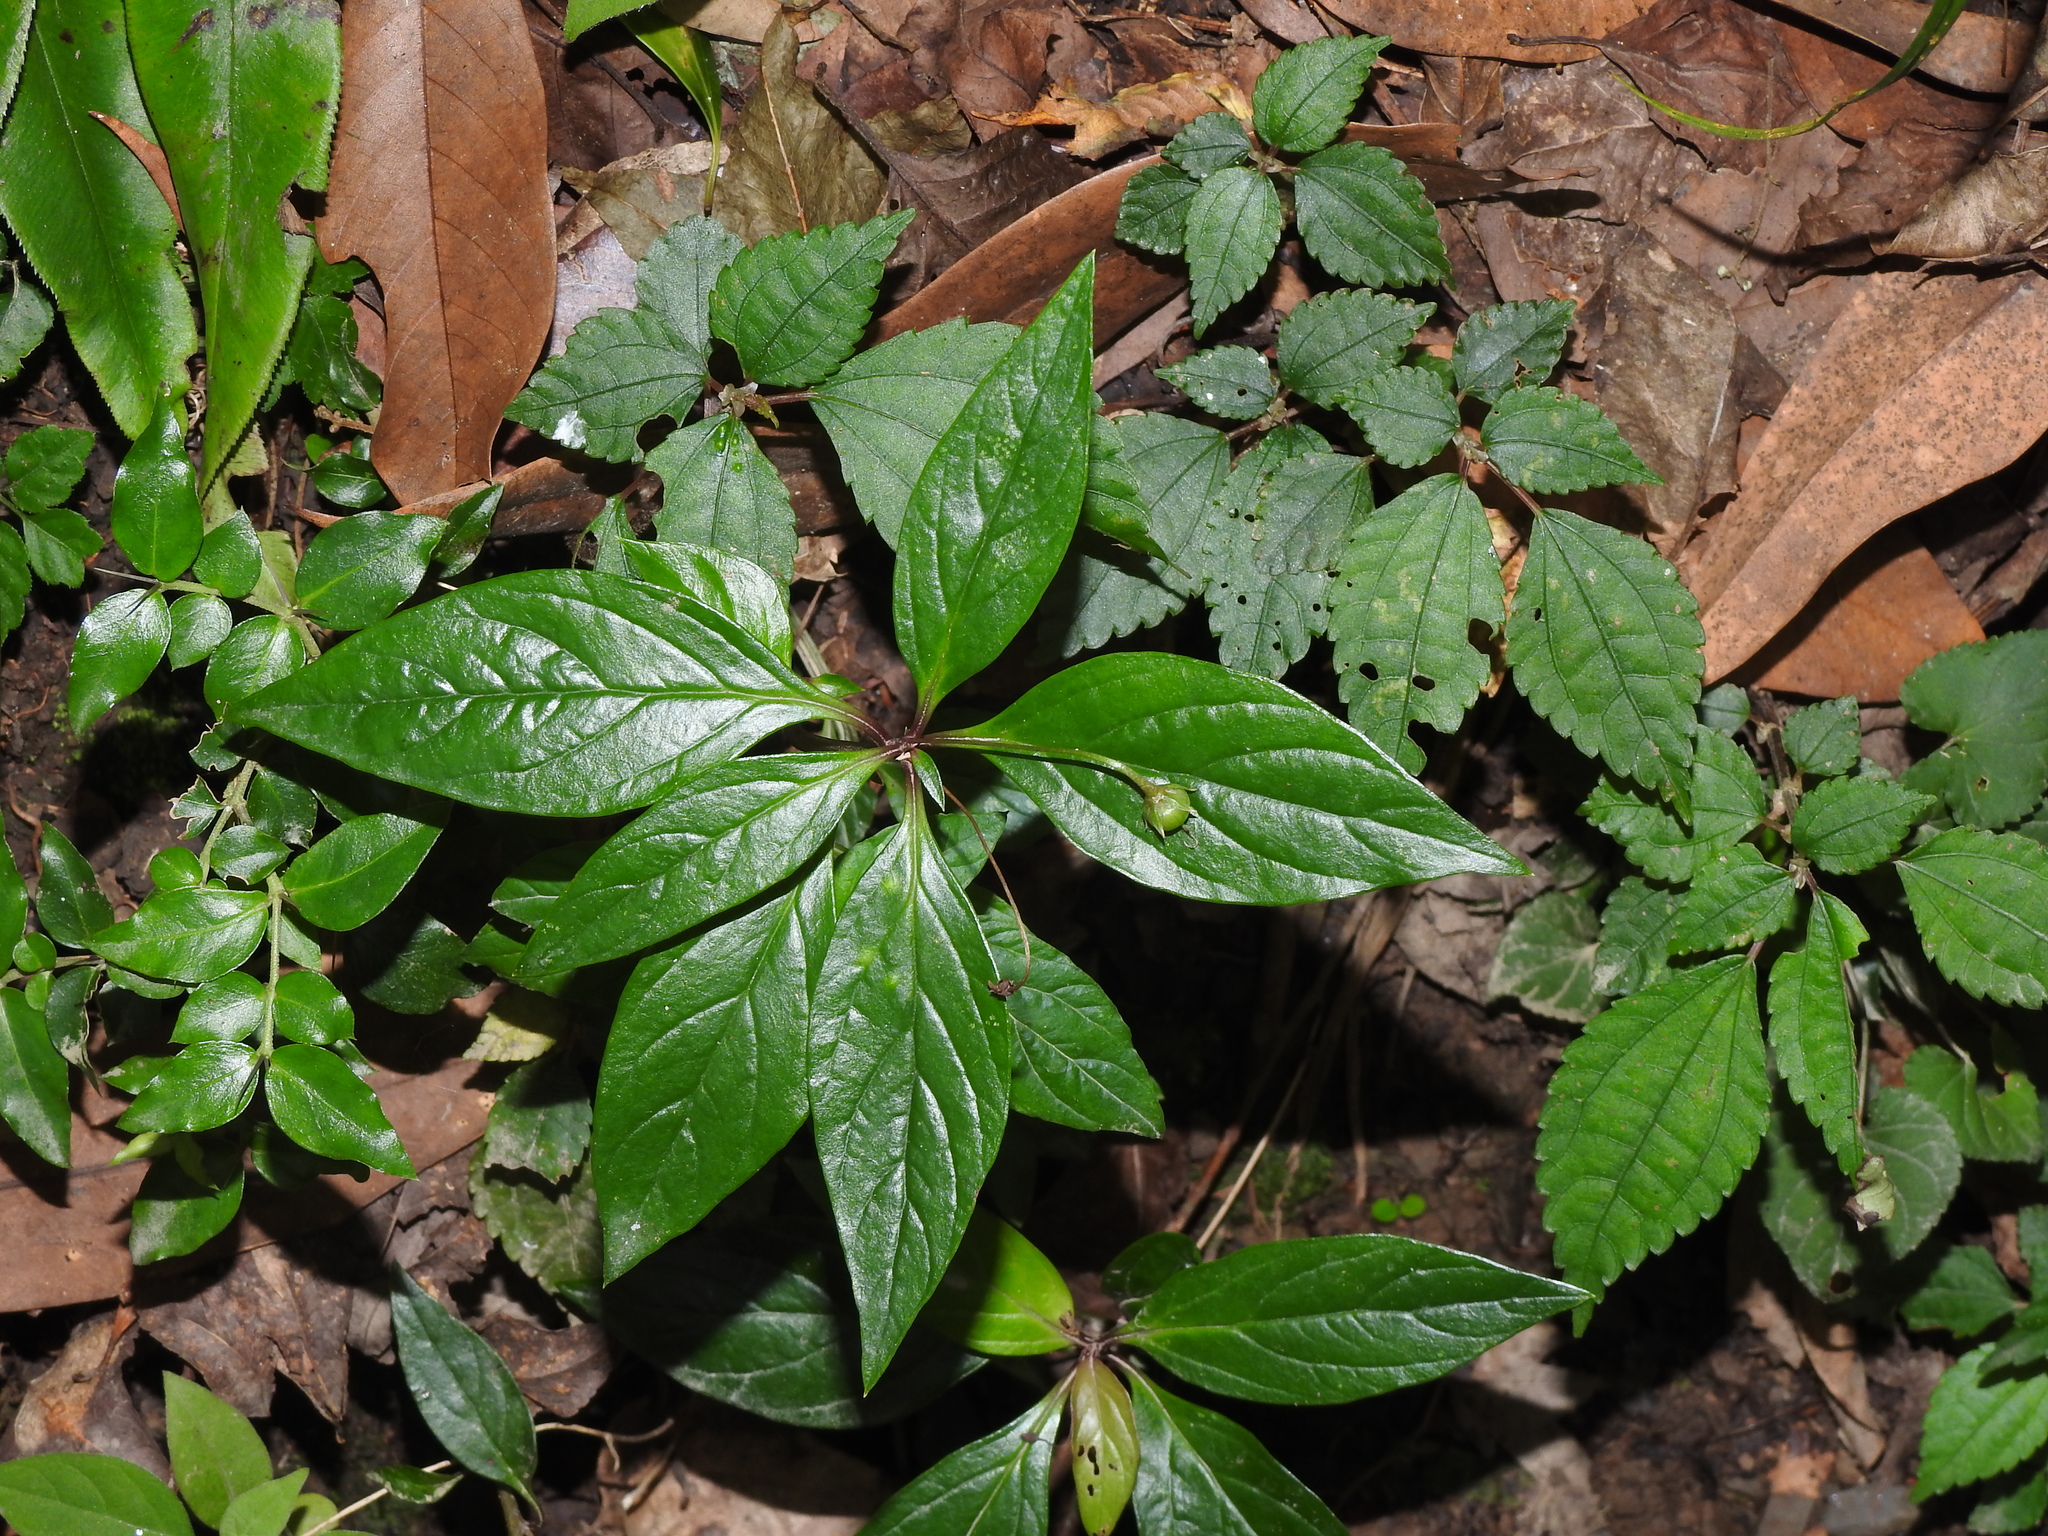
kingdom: Plantae
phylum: Tracheophyta
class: Magnoliopsida
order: Ericales
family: Primulaceae
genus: Lysimachia
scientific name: Lysimachia ardisioides
